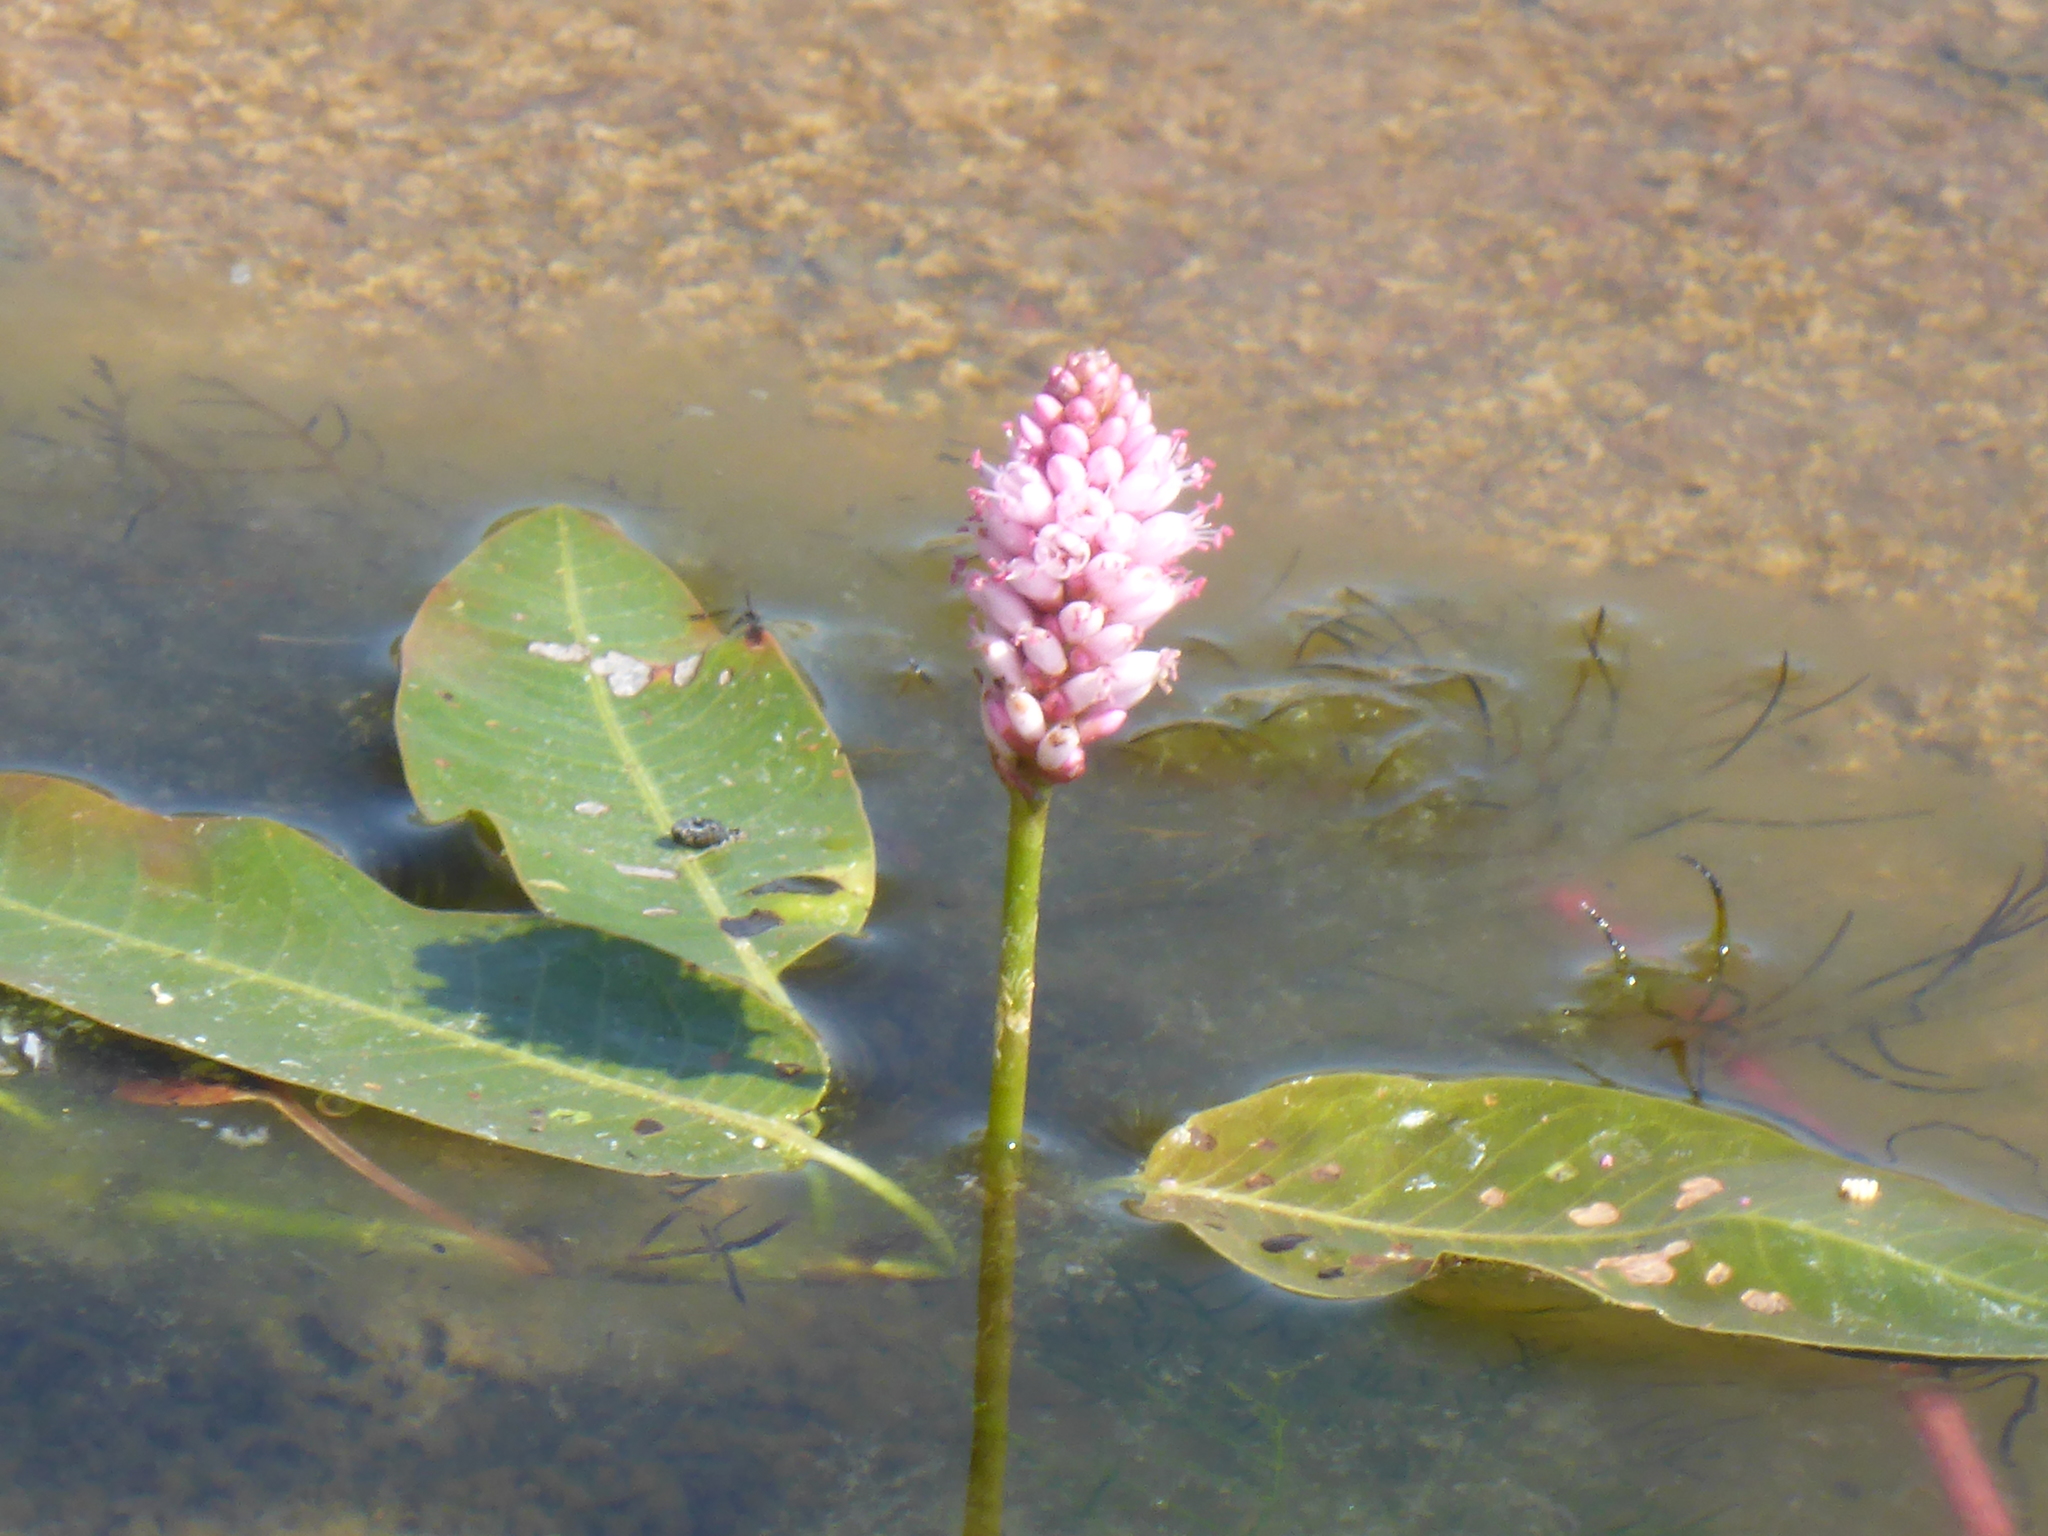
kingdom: Plantae
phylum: Tracheophyta
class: Magnoliopsida
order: Caryophyllales
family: Polygonaceae
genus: Persicaria
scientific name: Persicaria amphibia
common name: Amphibious bistort
